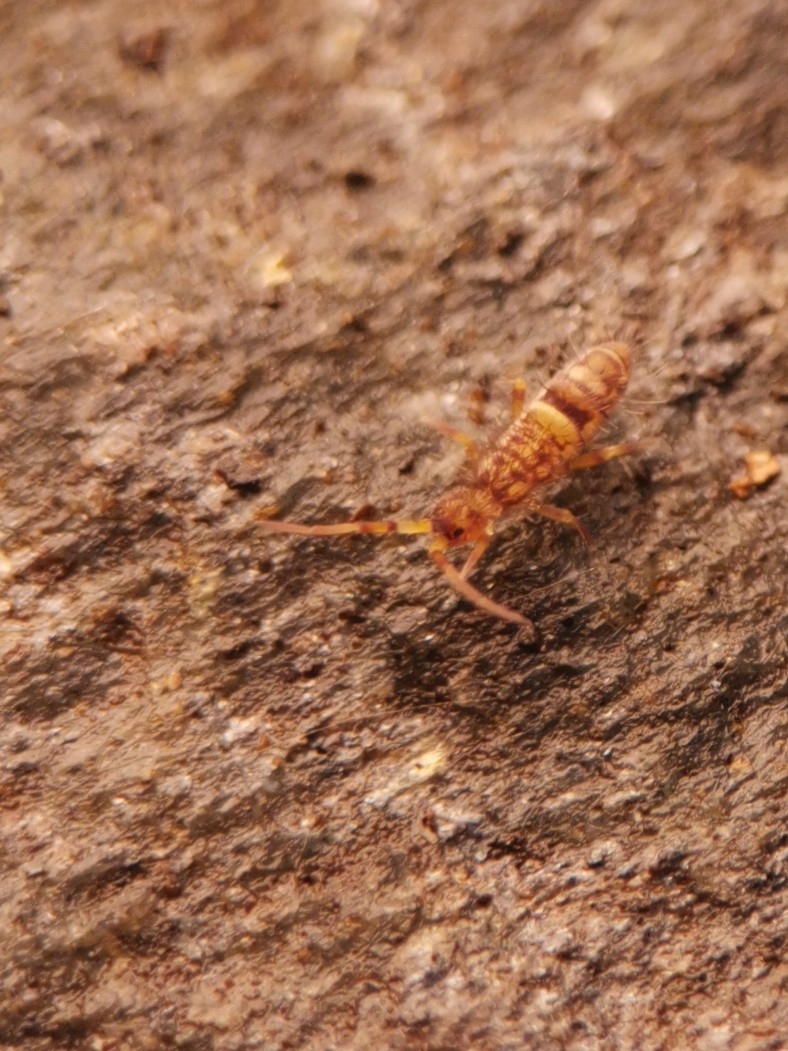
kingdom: Animalia
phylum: Arthropoda
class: Collembola
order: Entomobryomorpha
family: Orchesellidae
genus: Orchesella
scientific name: Orchesella cincta
